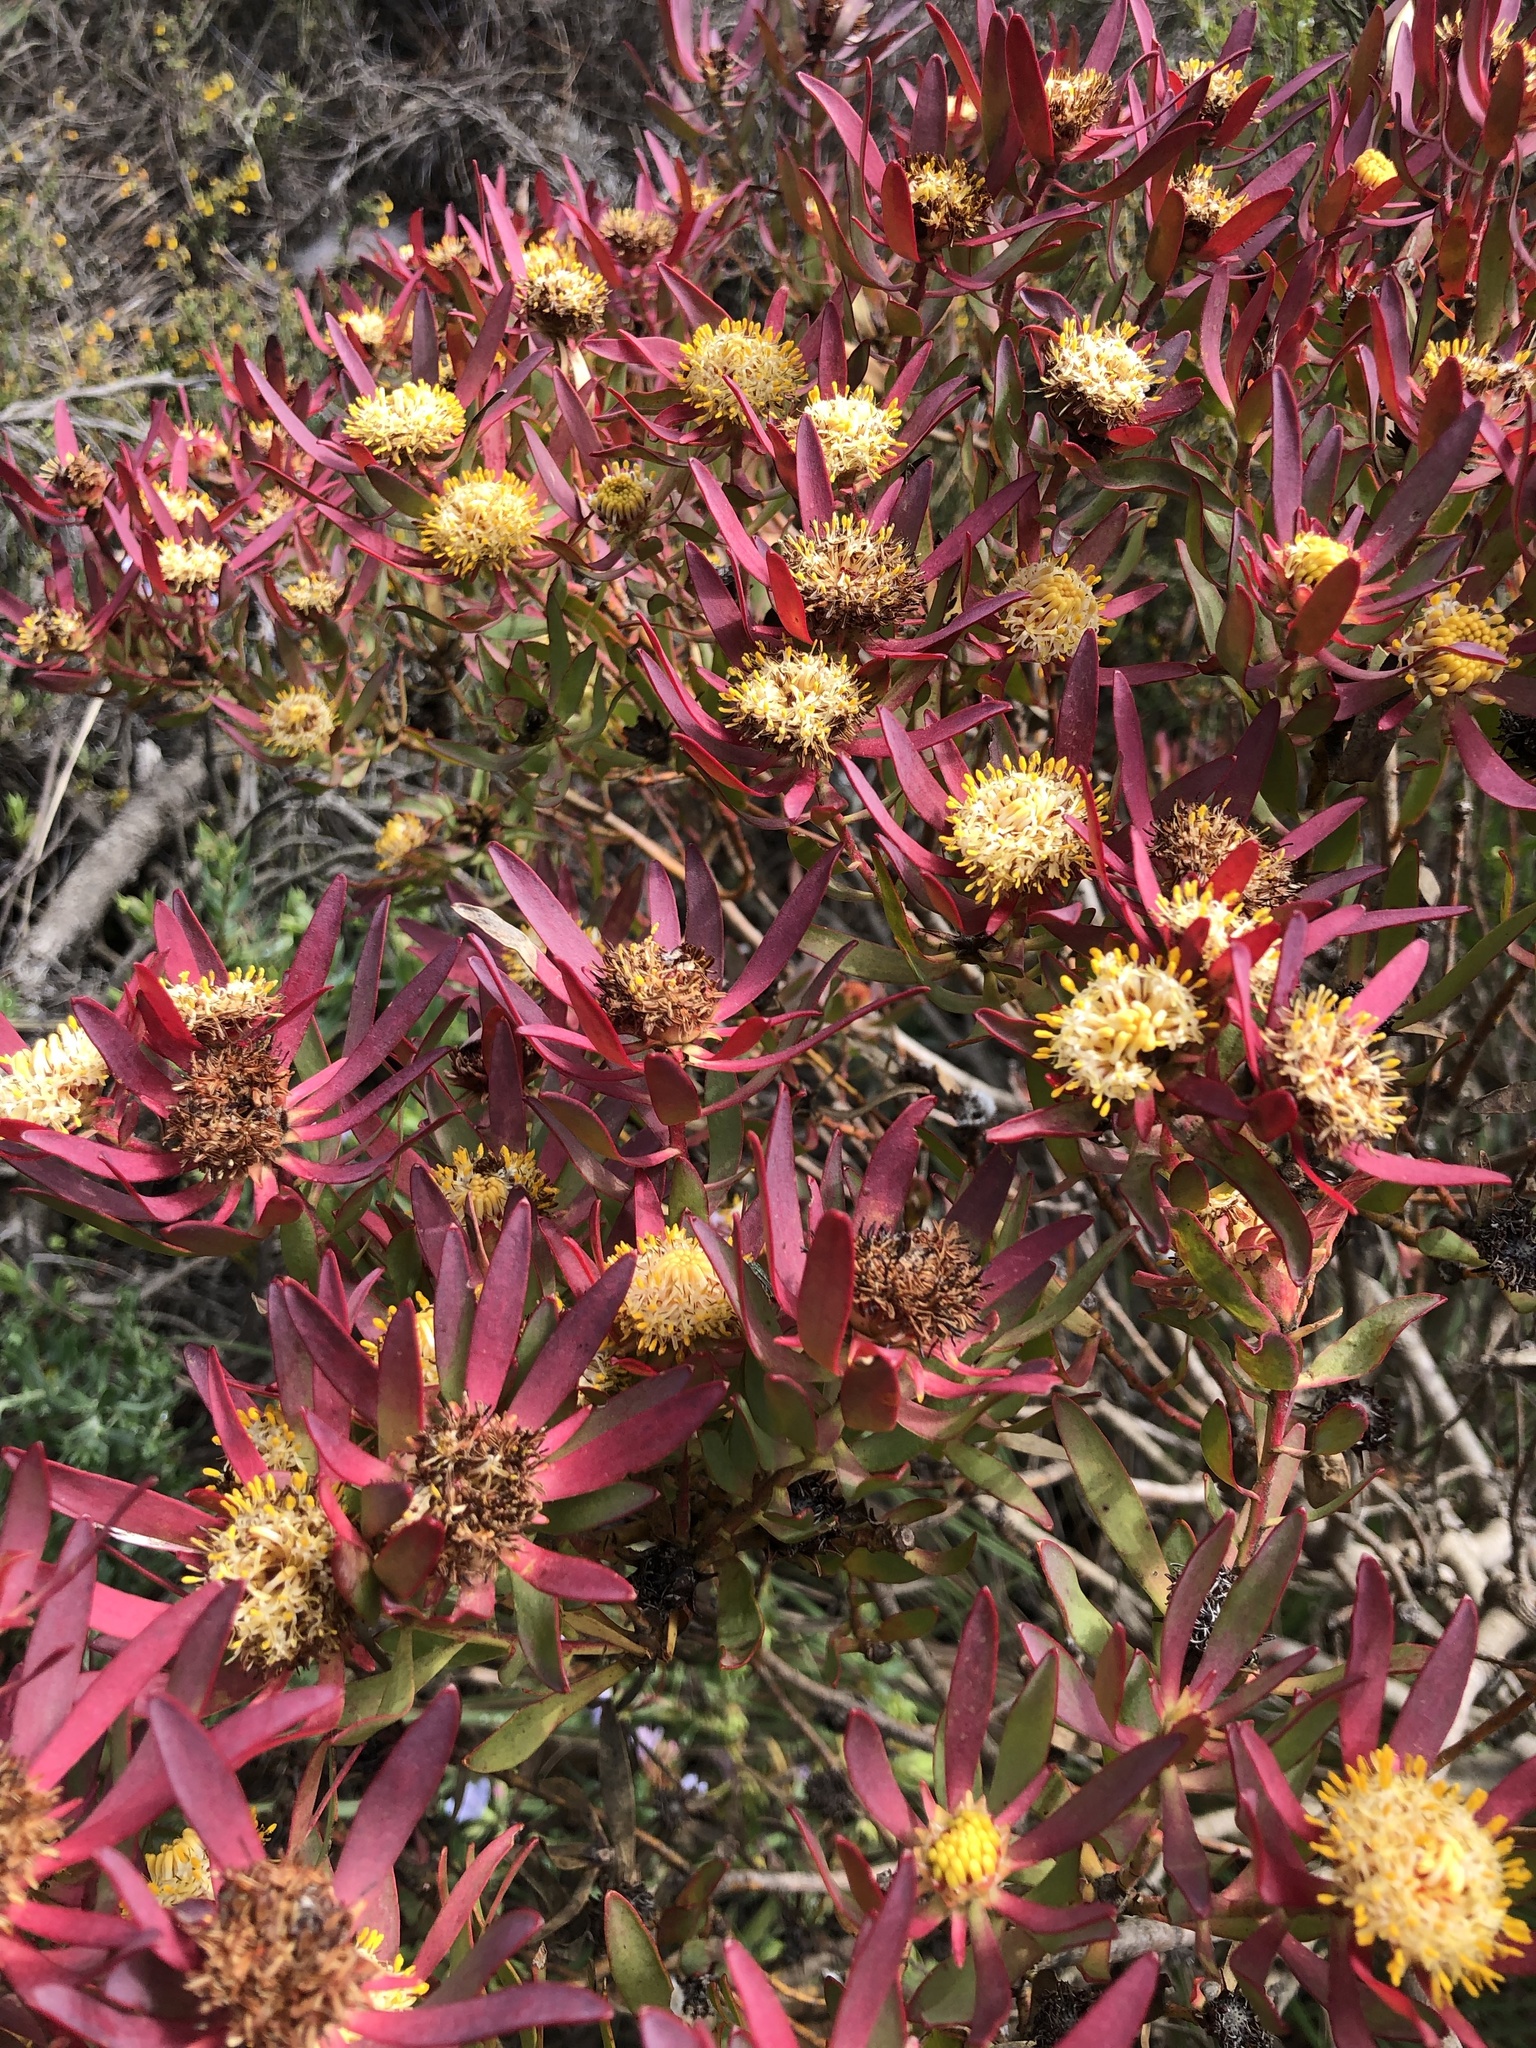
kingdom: Plantae
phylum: Tracheophyta
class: Magnoliopsida
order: Proteales
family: Proteaceae
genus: Leucadendron
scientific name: Leucadendron glaberrimum
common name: Common oily conebush
